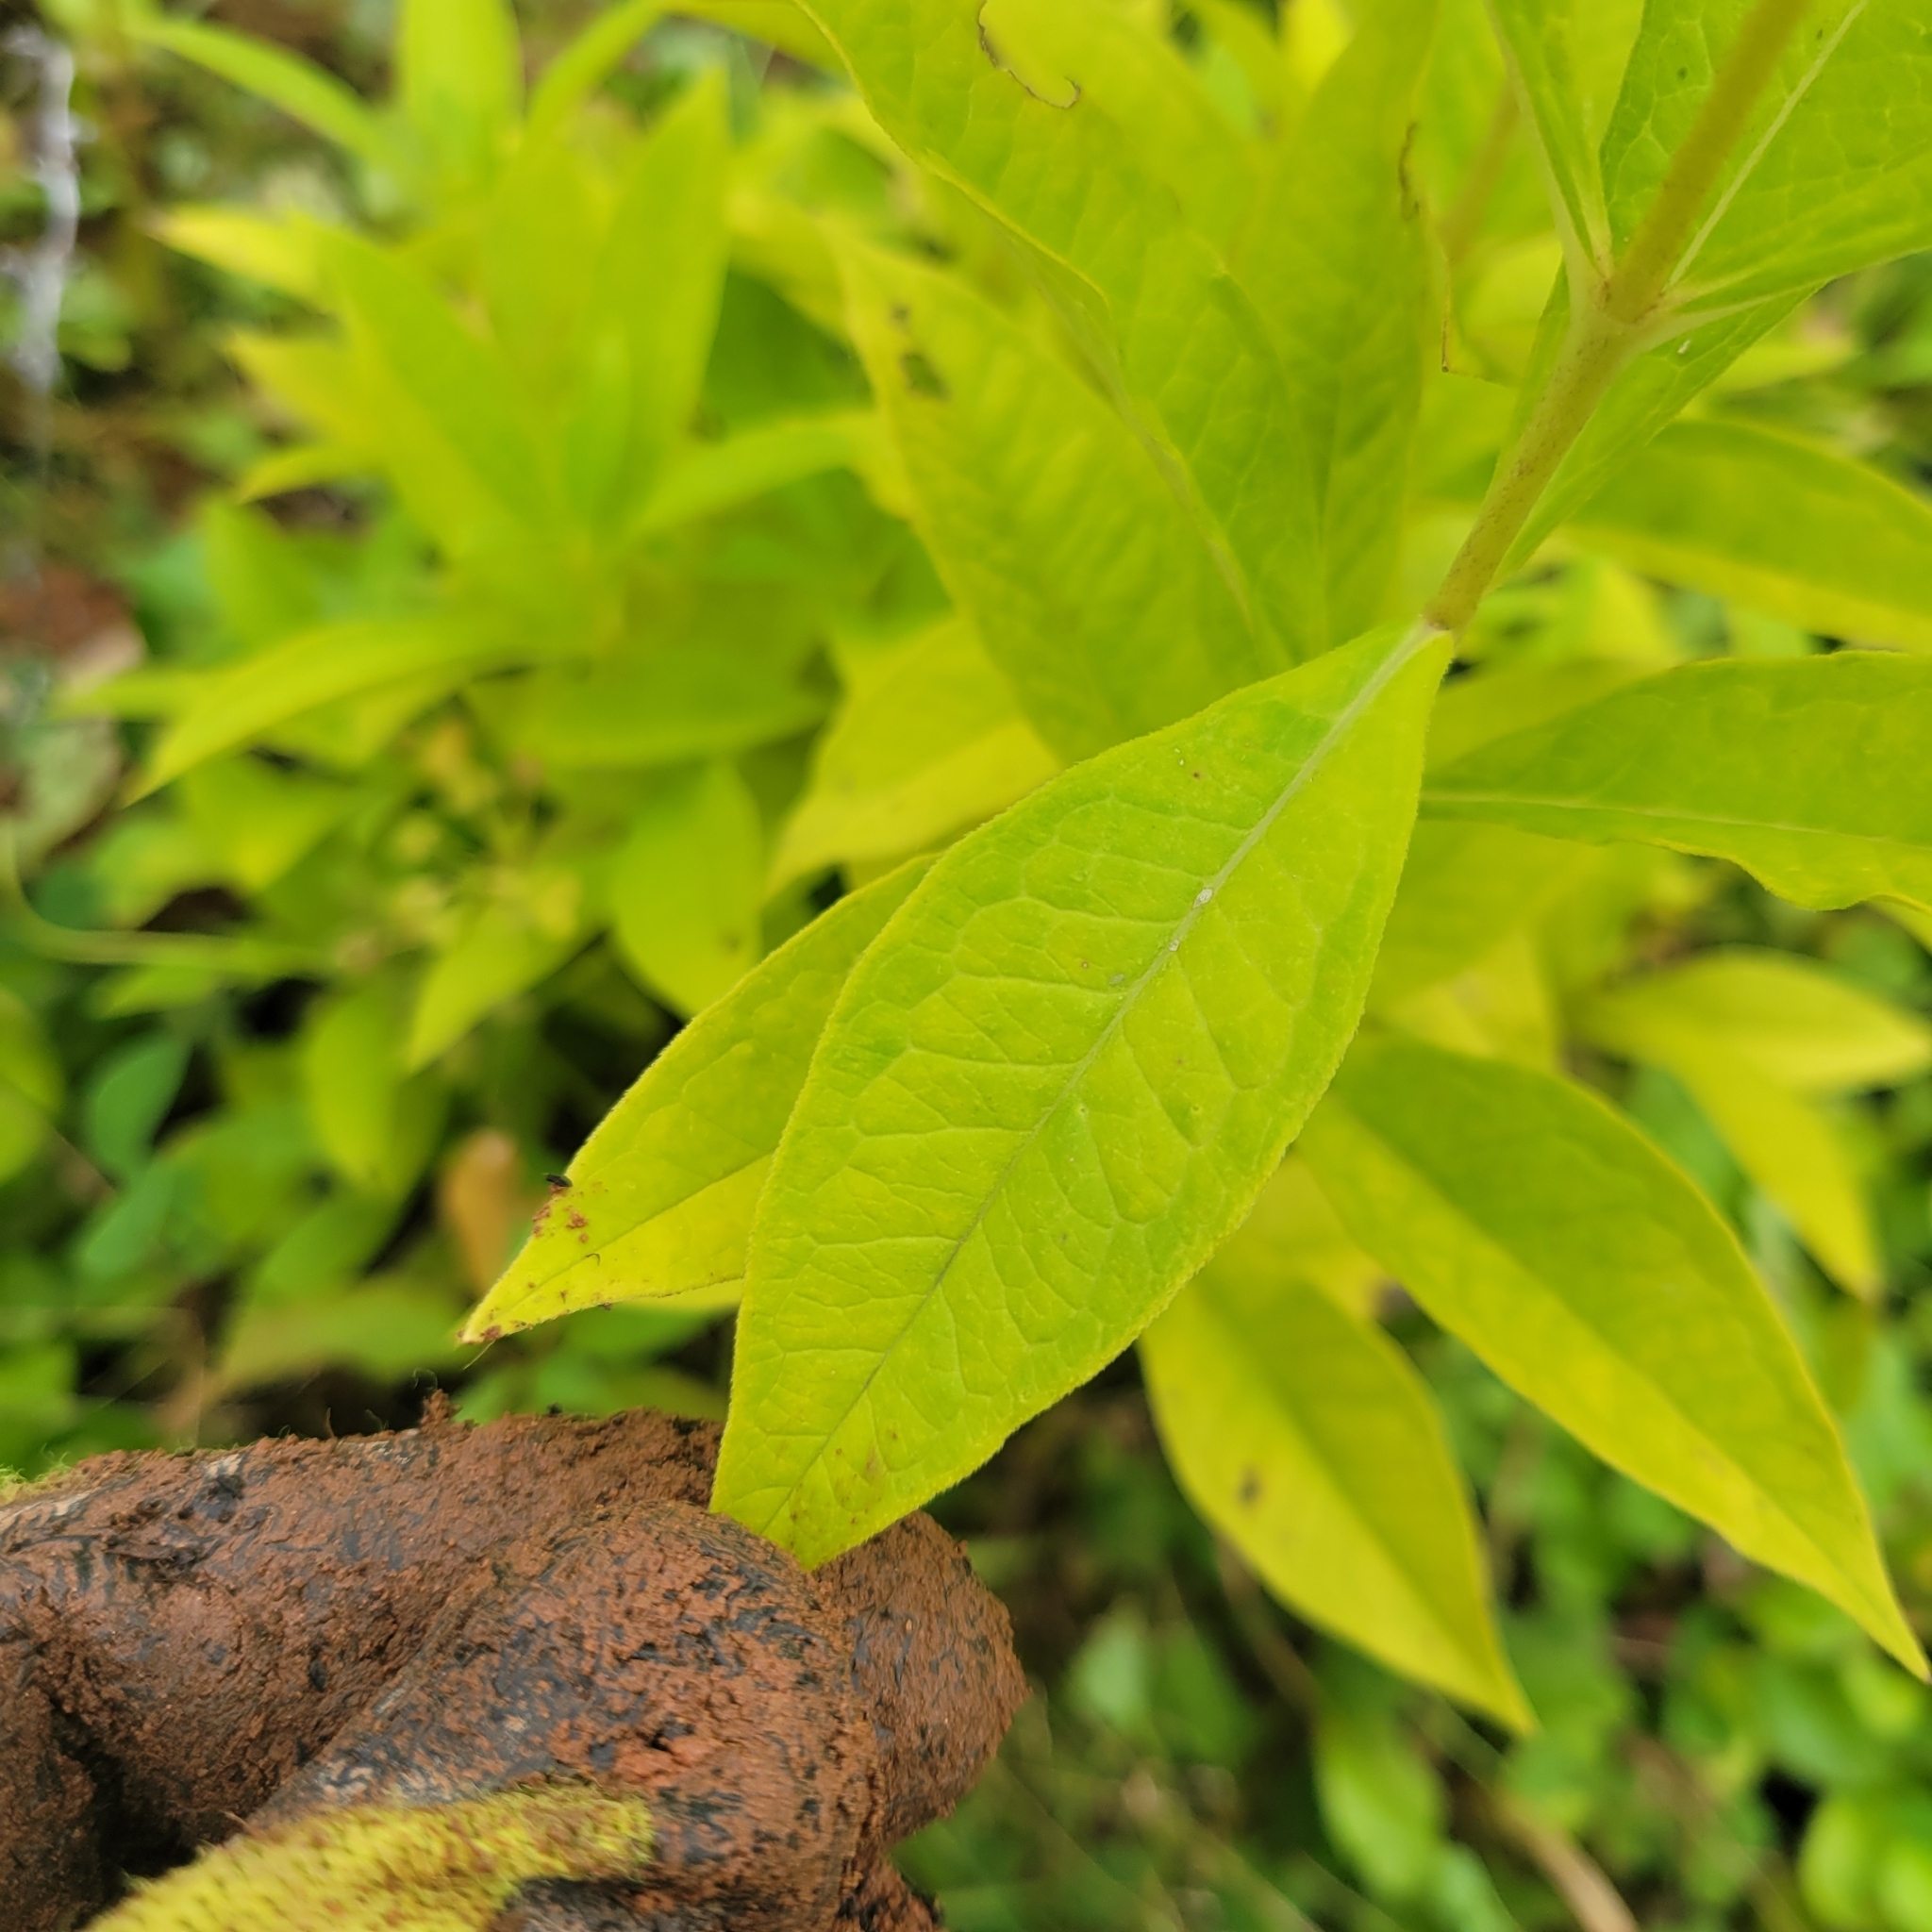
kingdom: Plantae
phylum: Tracheophyta
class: Magnoliopsida
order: Ericales
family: Polemoniaceae
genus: Phlox
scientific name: Phlox paniculata
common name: Fall phlox
